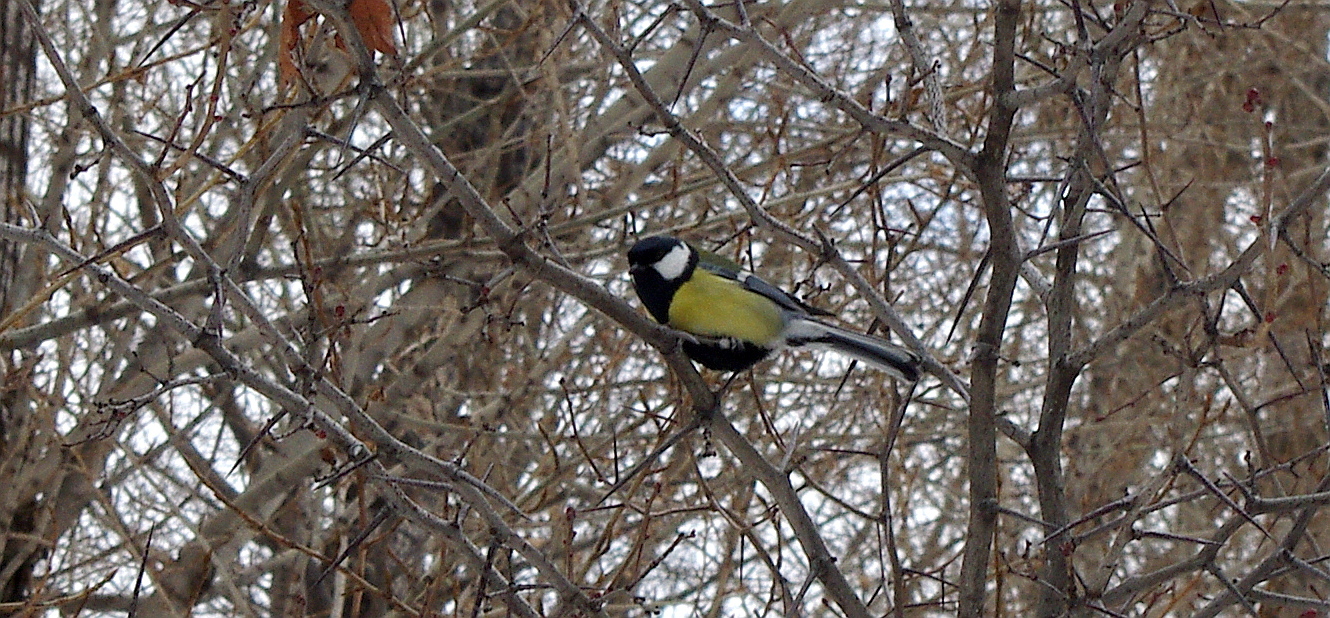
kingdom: Animalia
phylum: Chordata
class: Aves
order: Passeriformes
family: Paridae
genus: Parus
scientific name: Parus major
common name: Great tit
